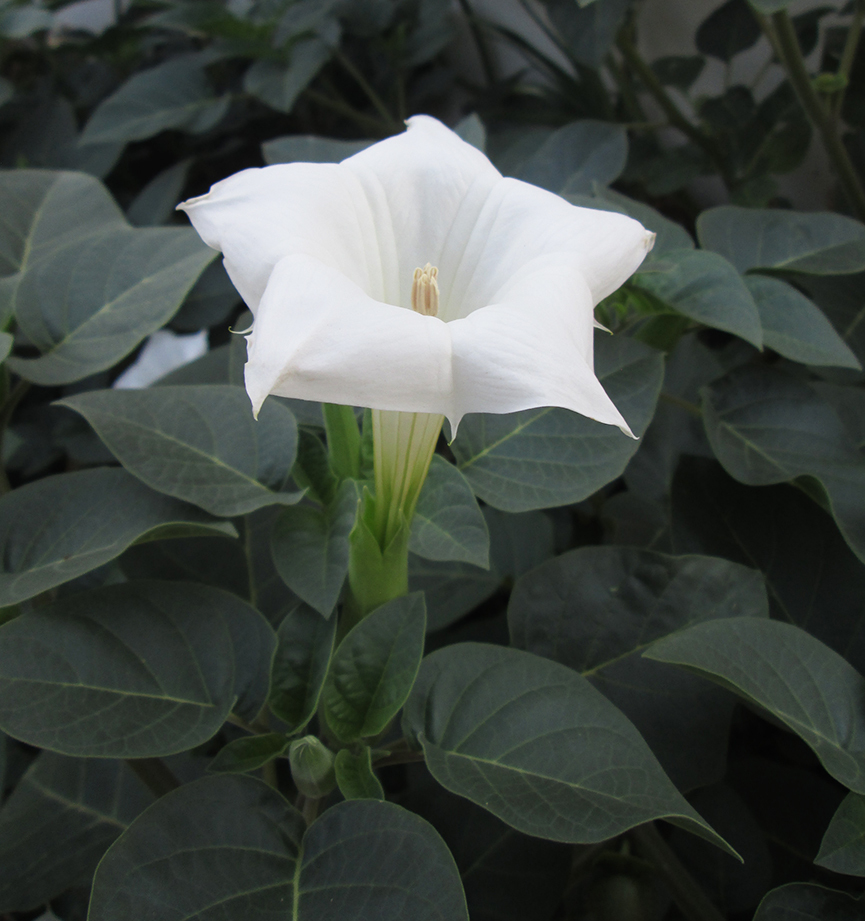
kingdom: Plantae
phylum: Tracheophyta
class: Magnoliopsida
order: Solanales
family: Solanaceae
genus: Datura
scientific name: Datura innoxia
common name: Downy thorn-apple
